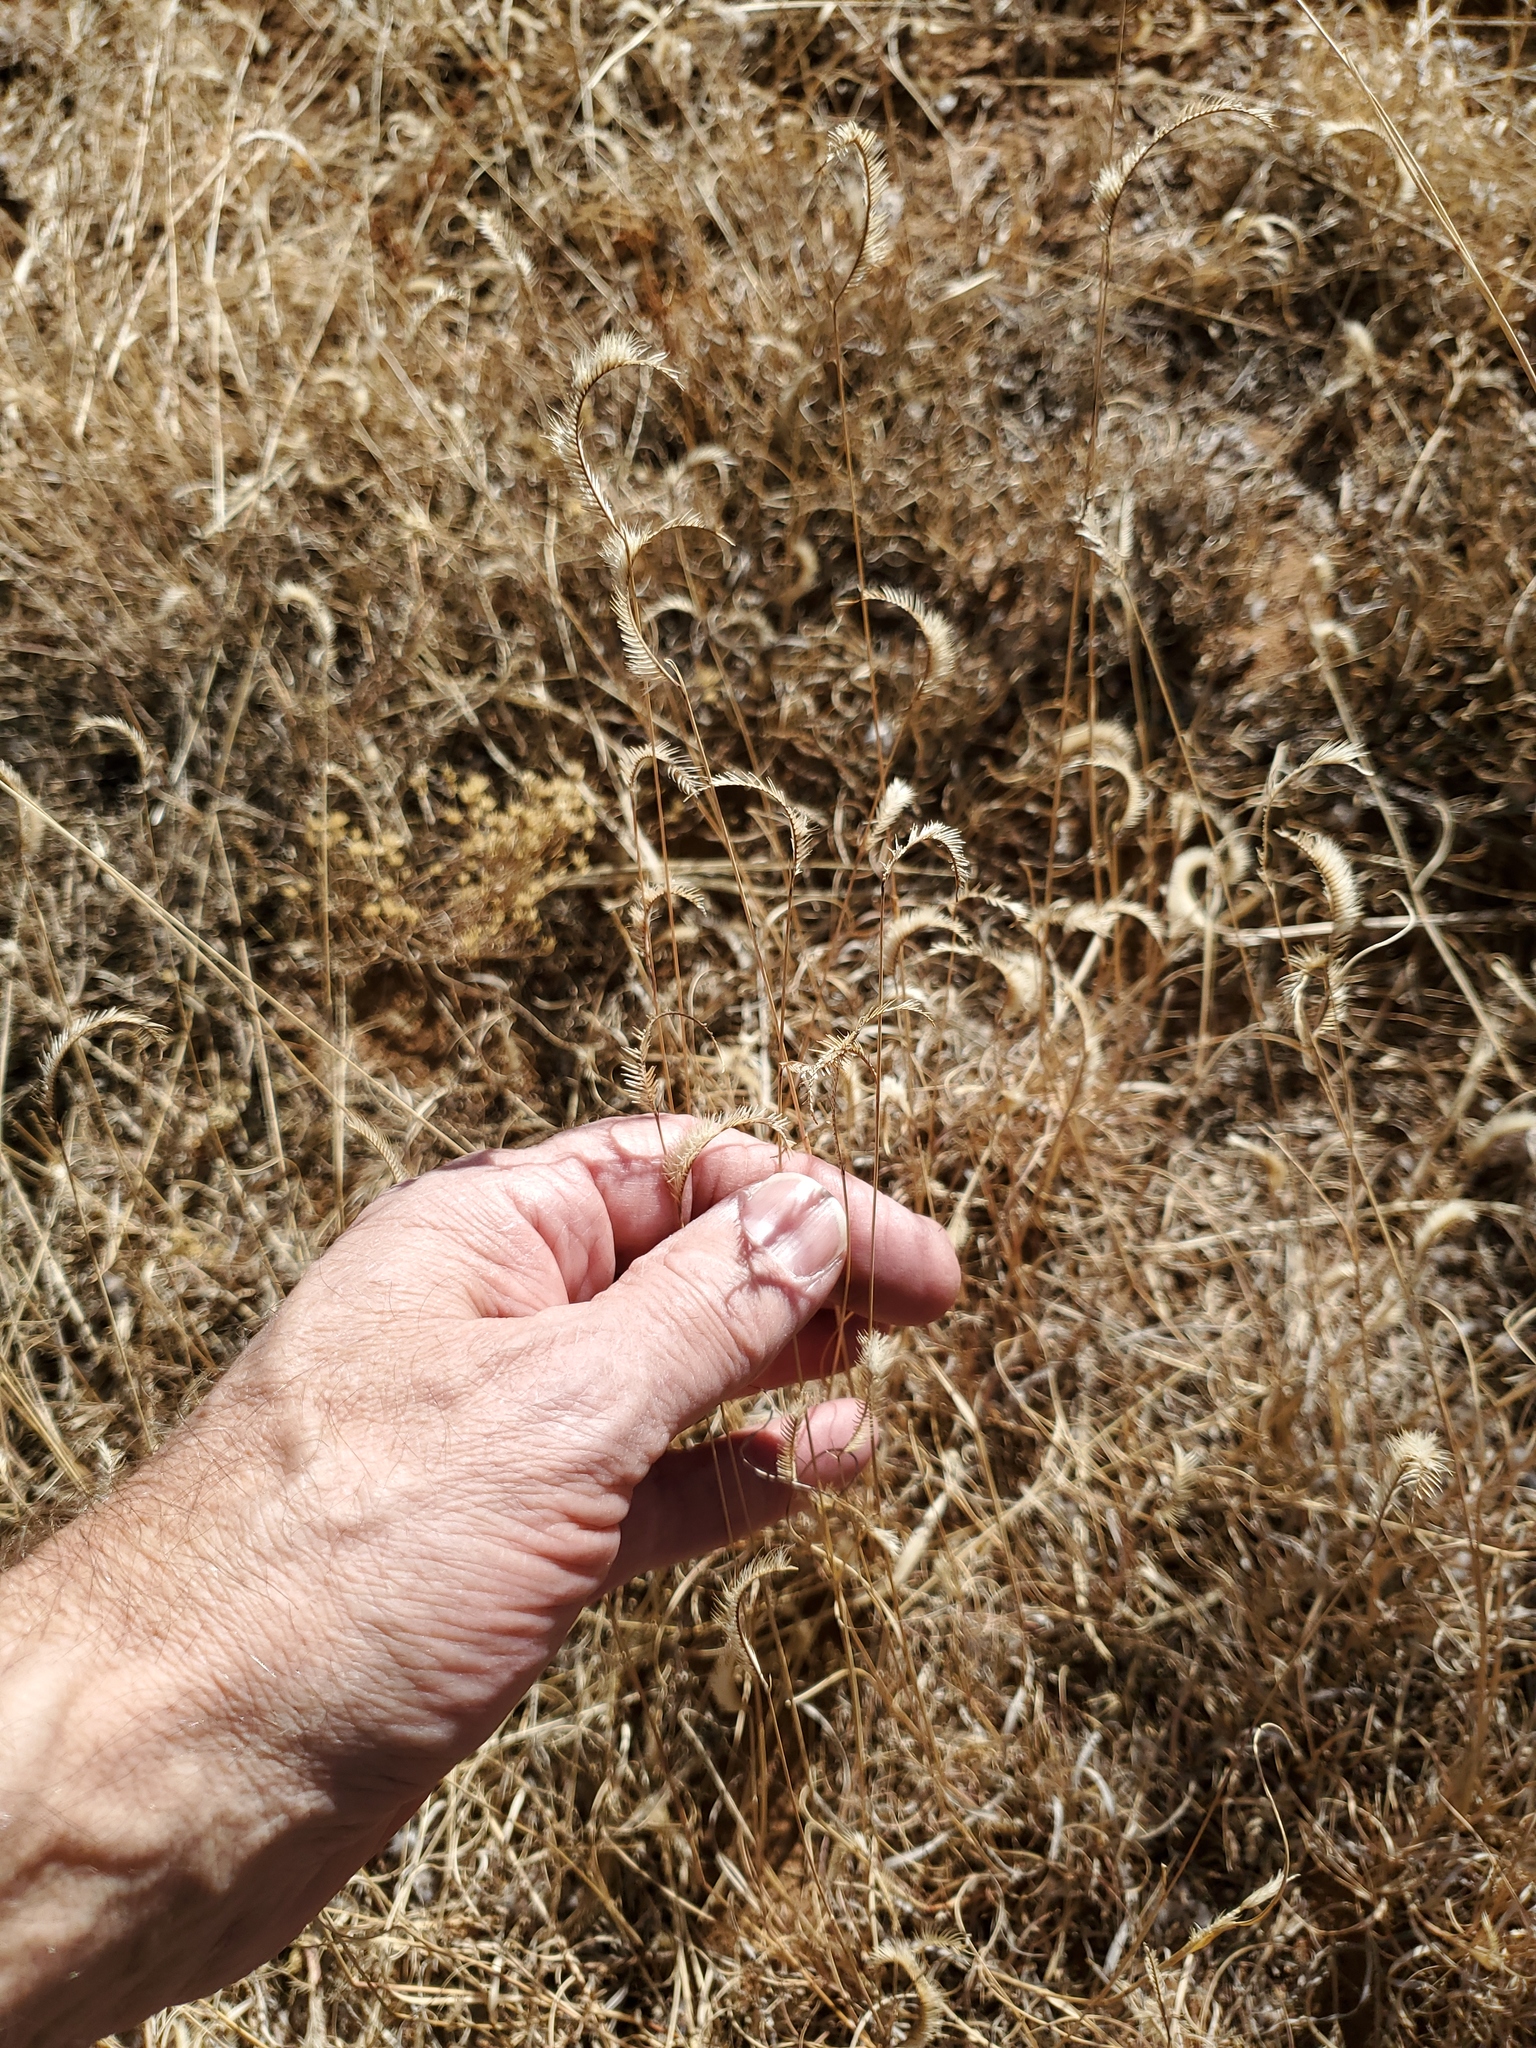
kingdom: Plantae
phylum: Tracheophyta
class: Liliopsida
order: Poales
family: Poaceae
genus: Bouteloua
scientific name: Bouteloua gracilis
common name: Blue grama
